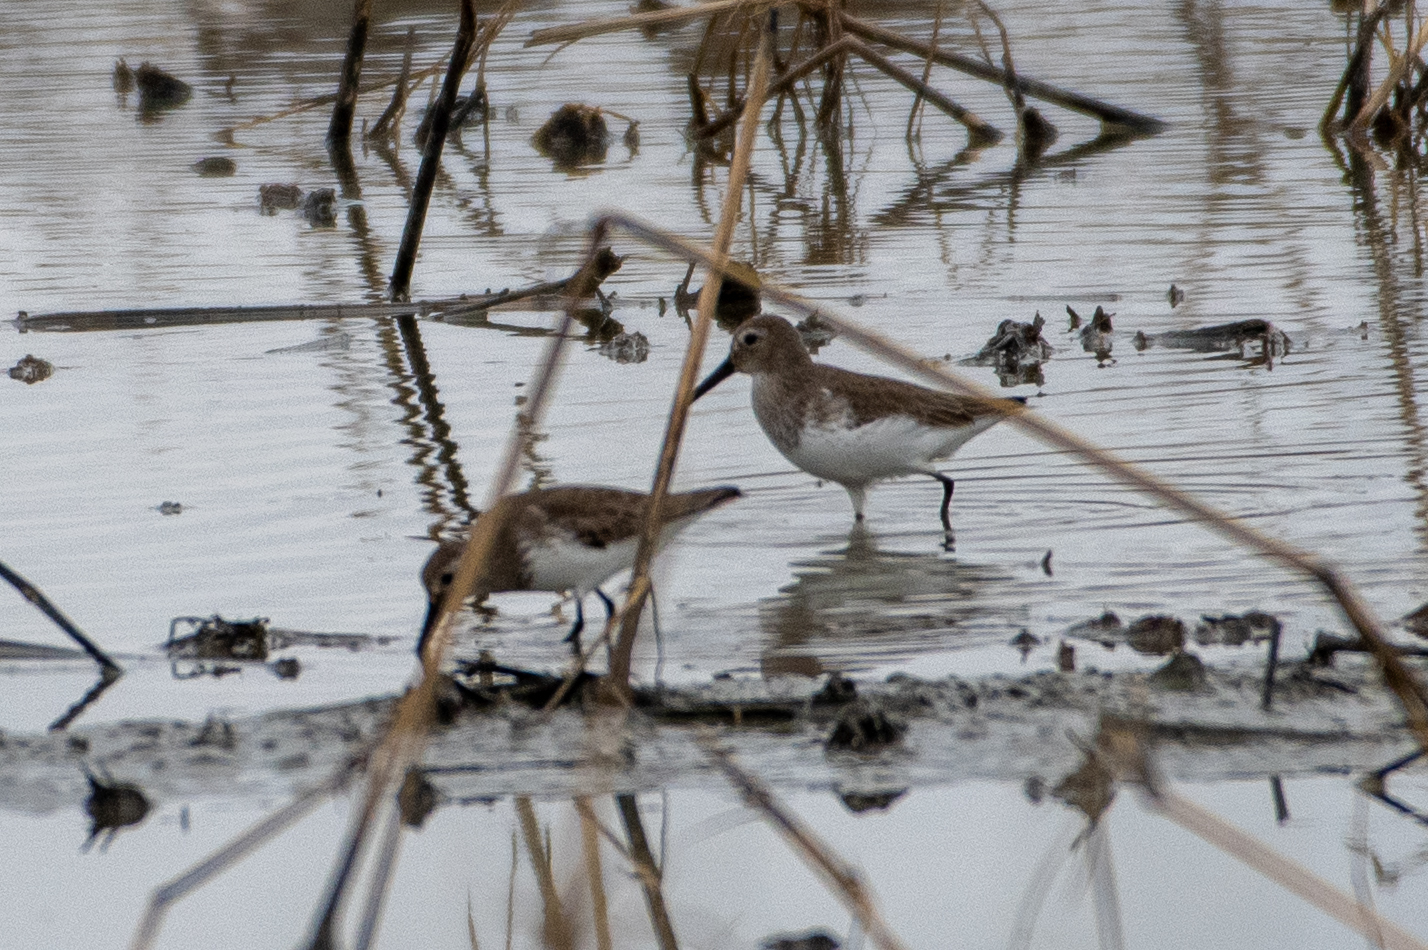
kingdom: Animalia
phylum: Chordata
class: Aves
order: Charadriiformes
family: Scolopacidae
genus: Calidris
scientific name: Calidris alpina
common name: Dunlin
